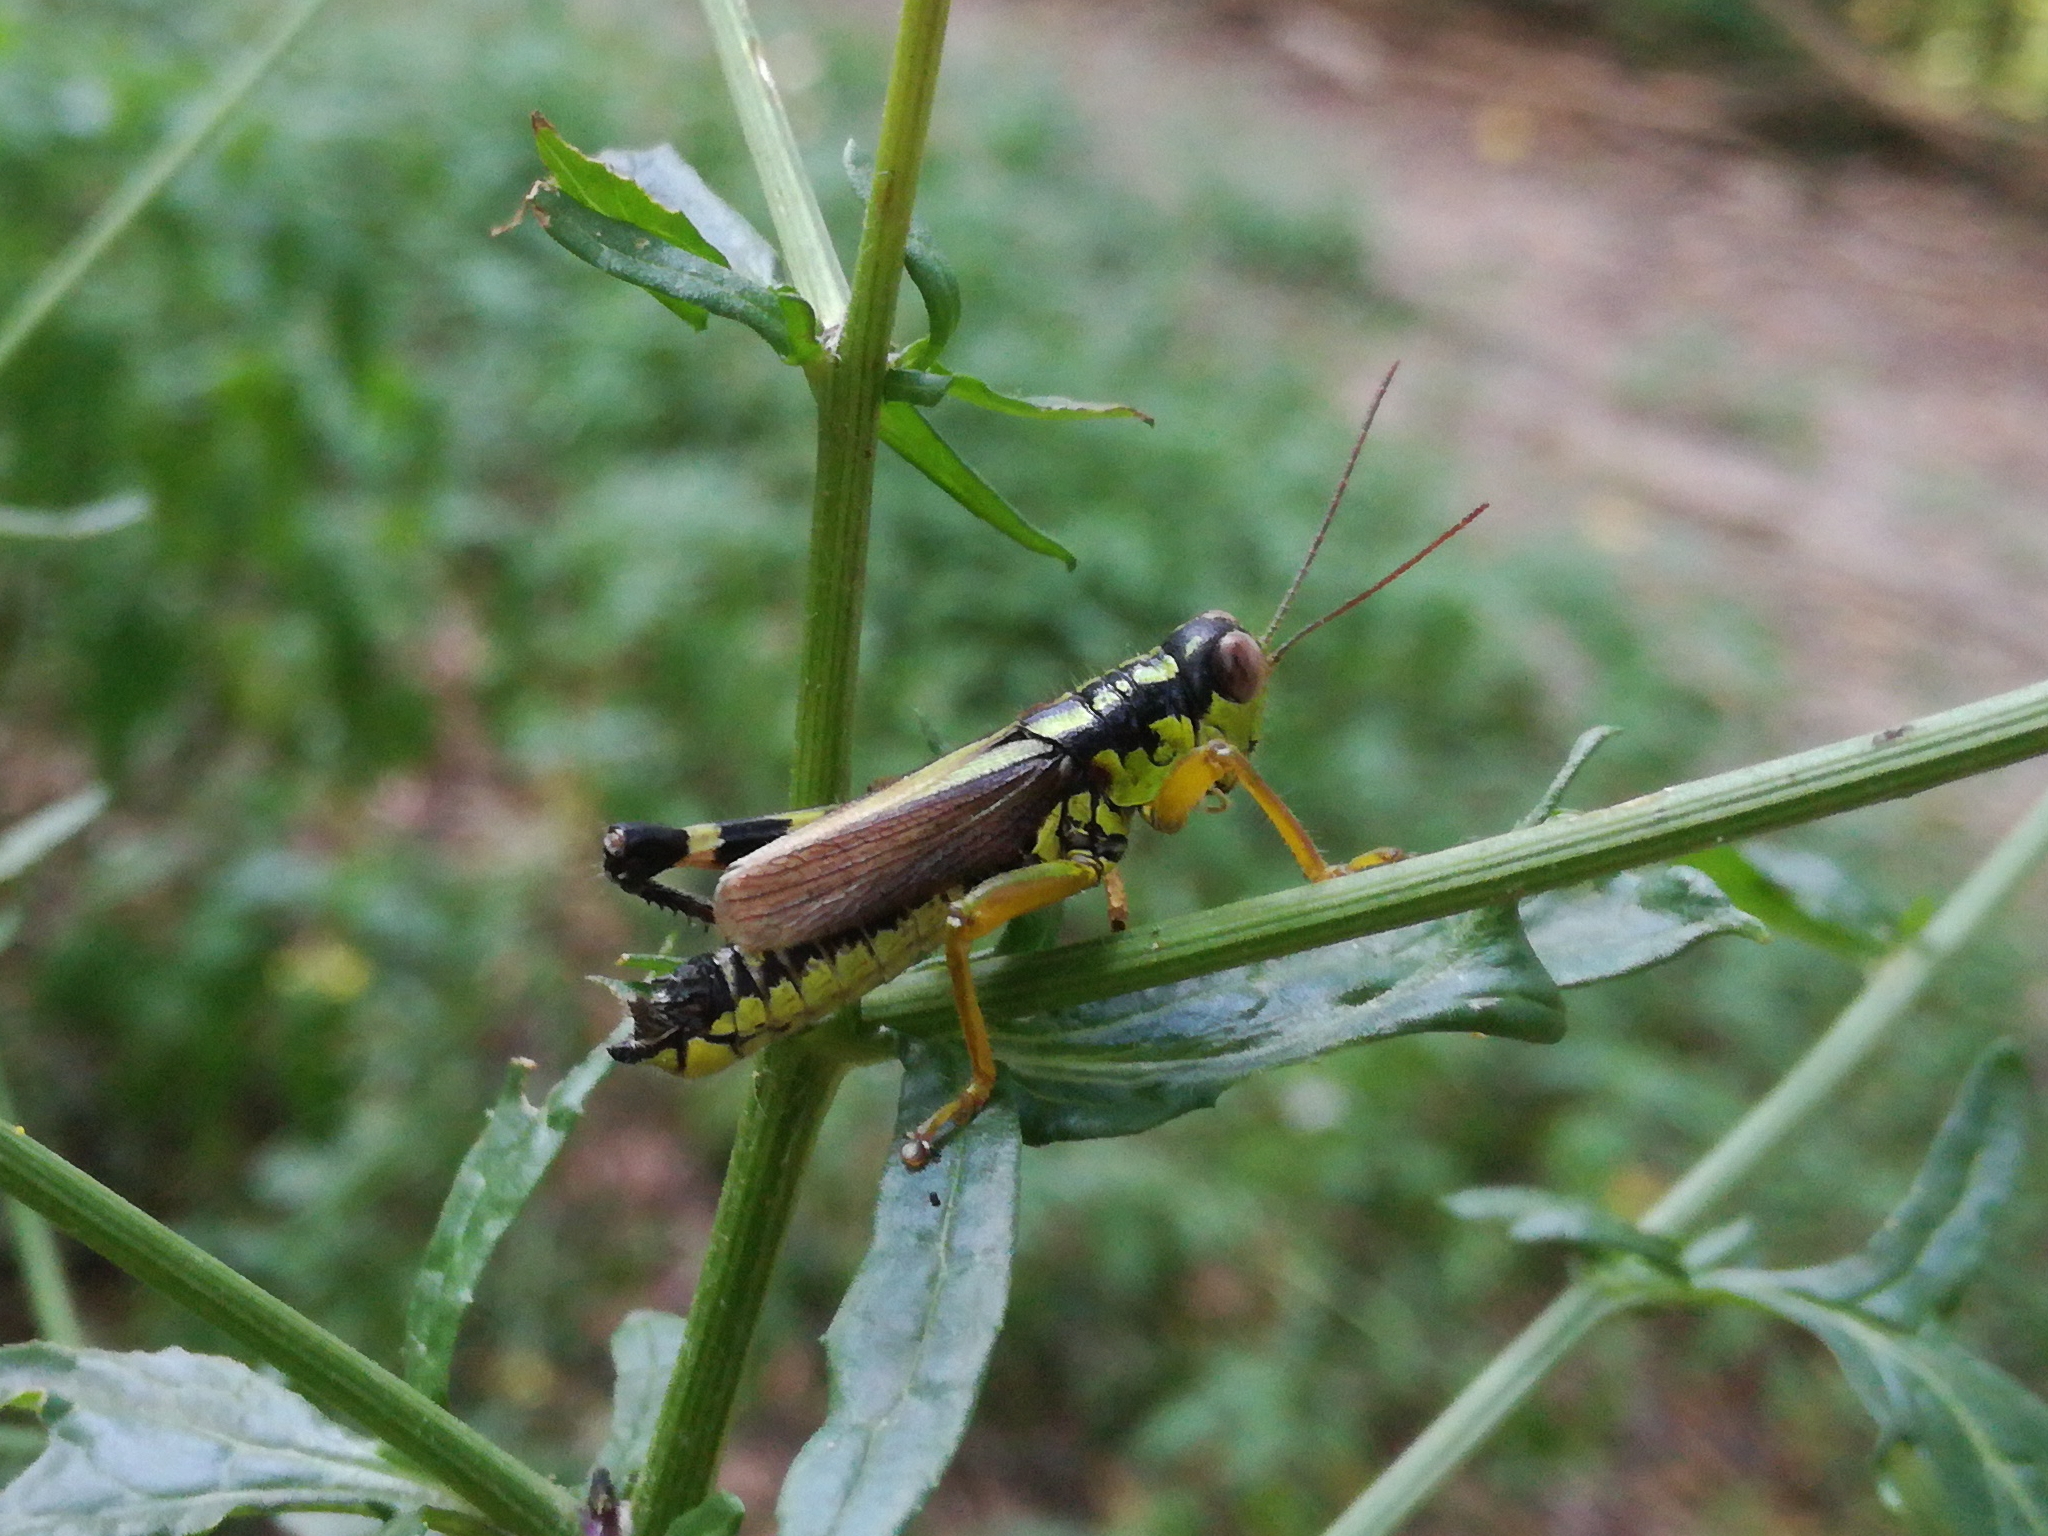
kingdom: Animalia
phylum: Arthropoda
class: Insecta
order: Orthoptera
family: Acrididae
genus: Miramella
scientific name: Miramella irena
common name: Long-winged mountain grasshopper
